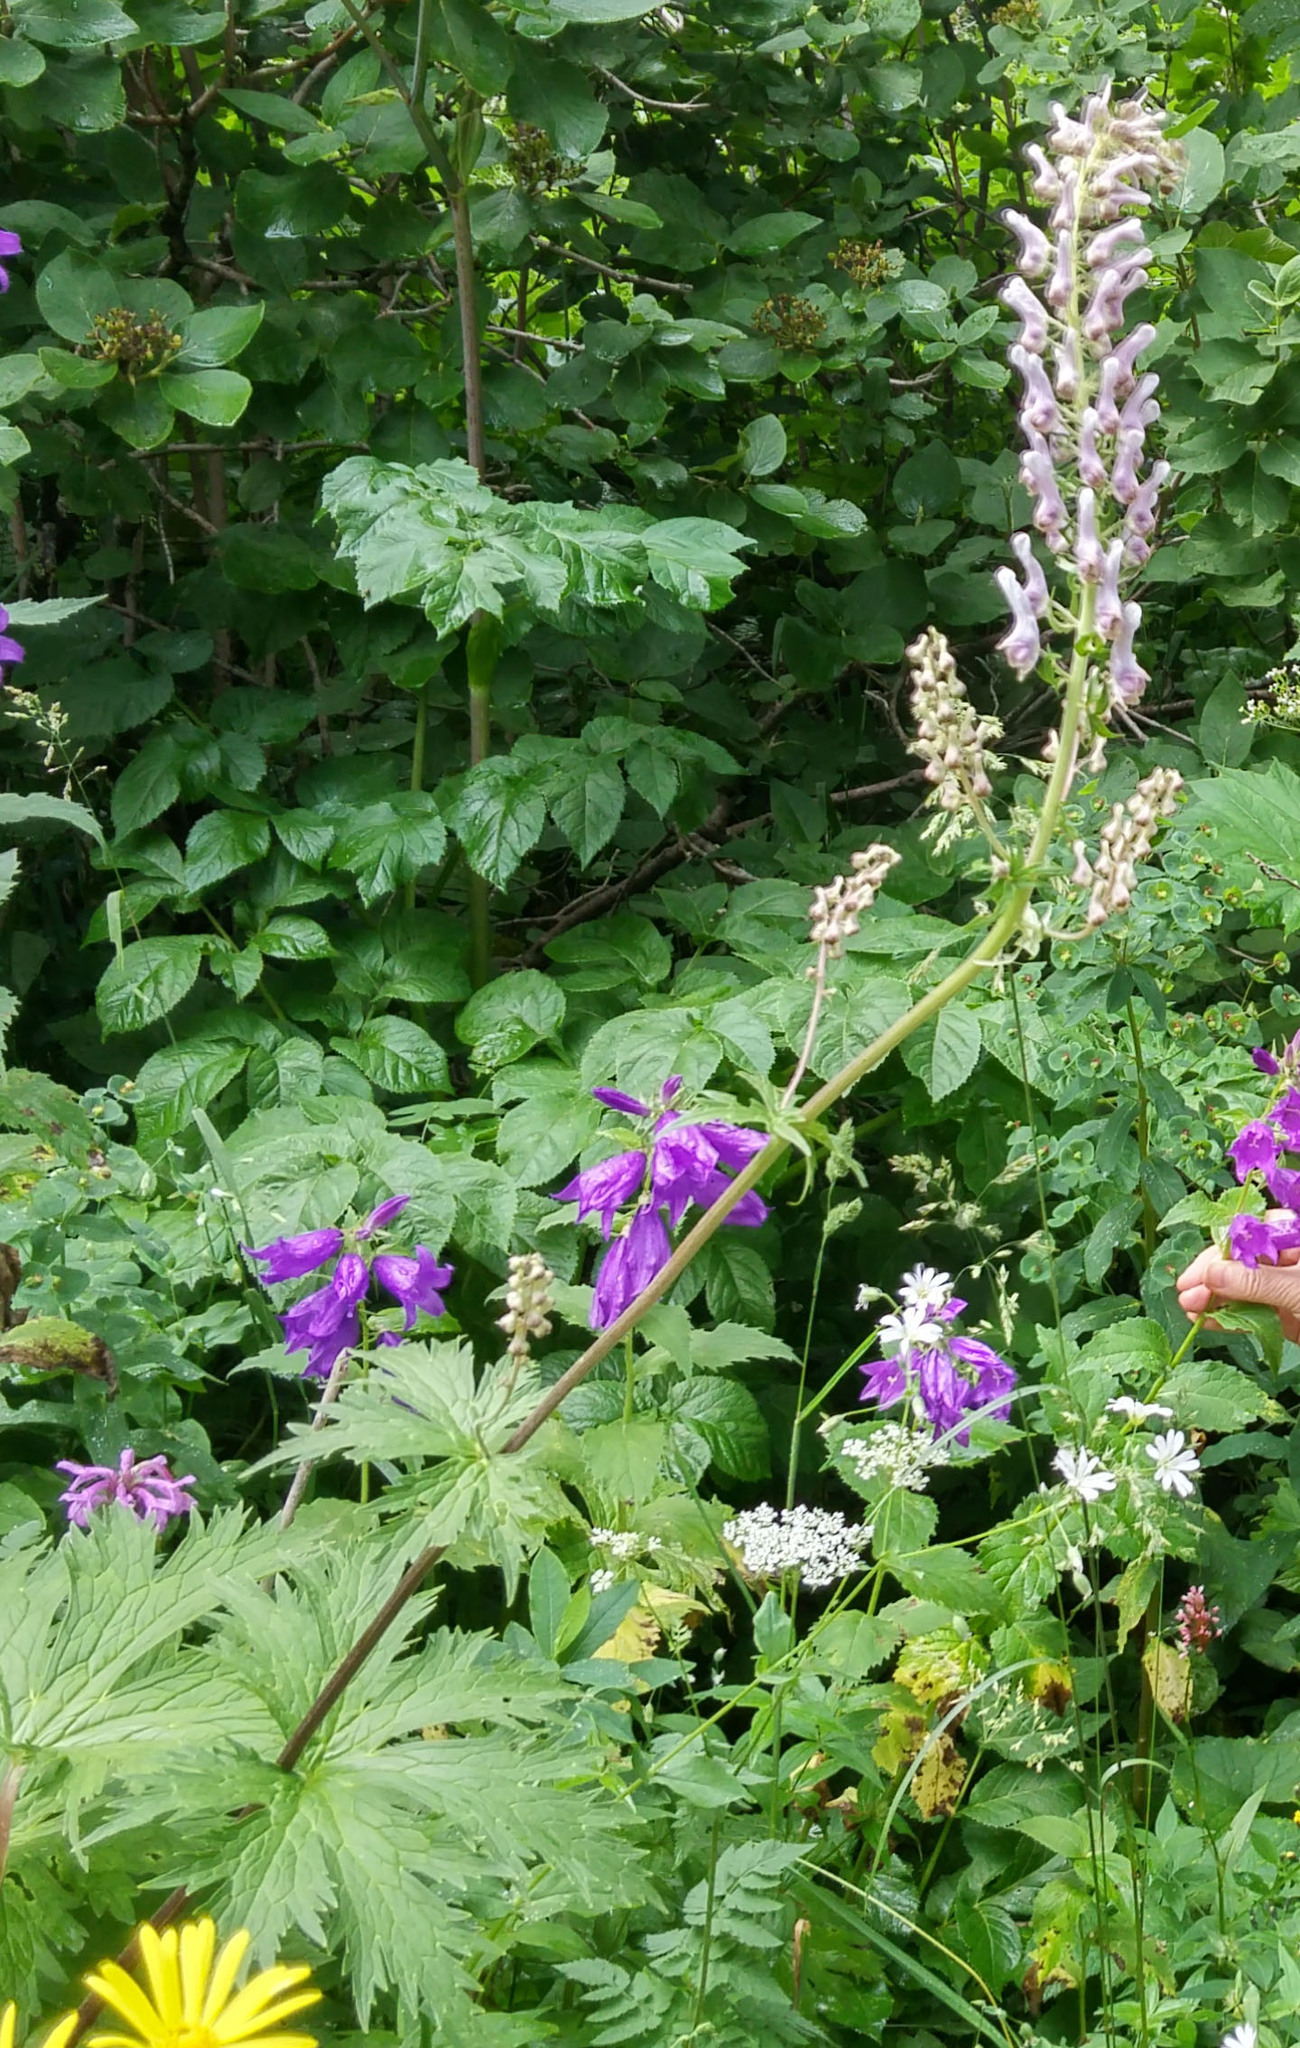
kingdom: Plantae
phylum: Tracheophyta
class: Magnoliopsida
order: Ranunculales
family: Ranunculaceae
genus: Aconitum
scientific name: Aconitum orientale
